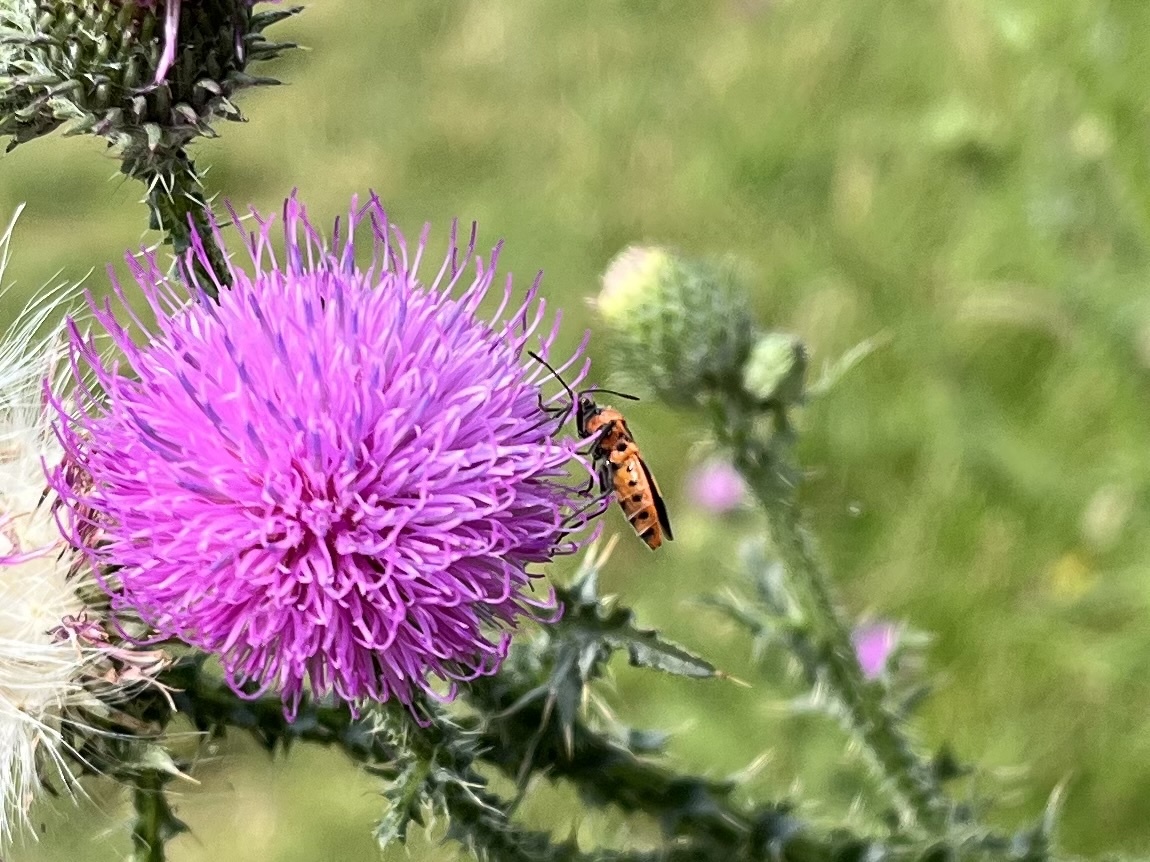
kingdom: Animalia
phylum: Arthropoda
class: Insecta
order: Hemiptera
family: Rhopalidae
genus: Corizus
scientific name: Corizus hyoscyami
